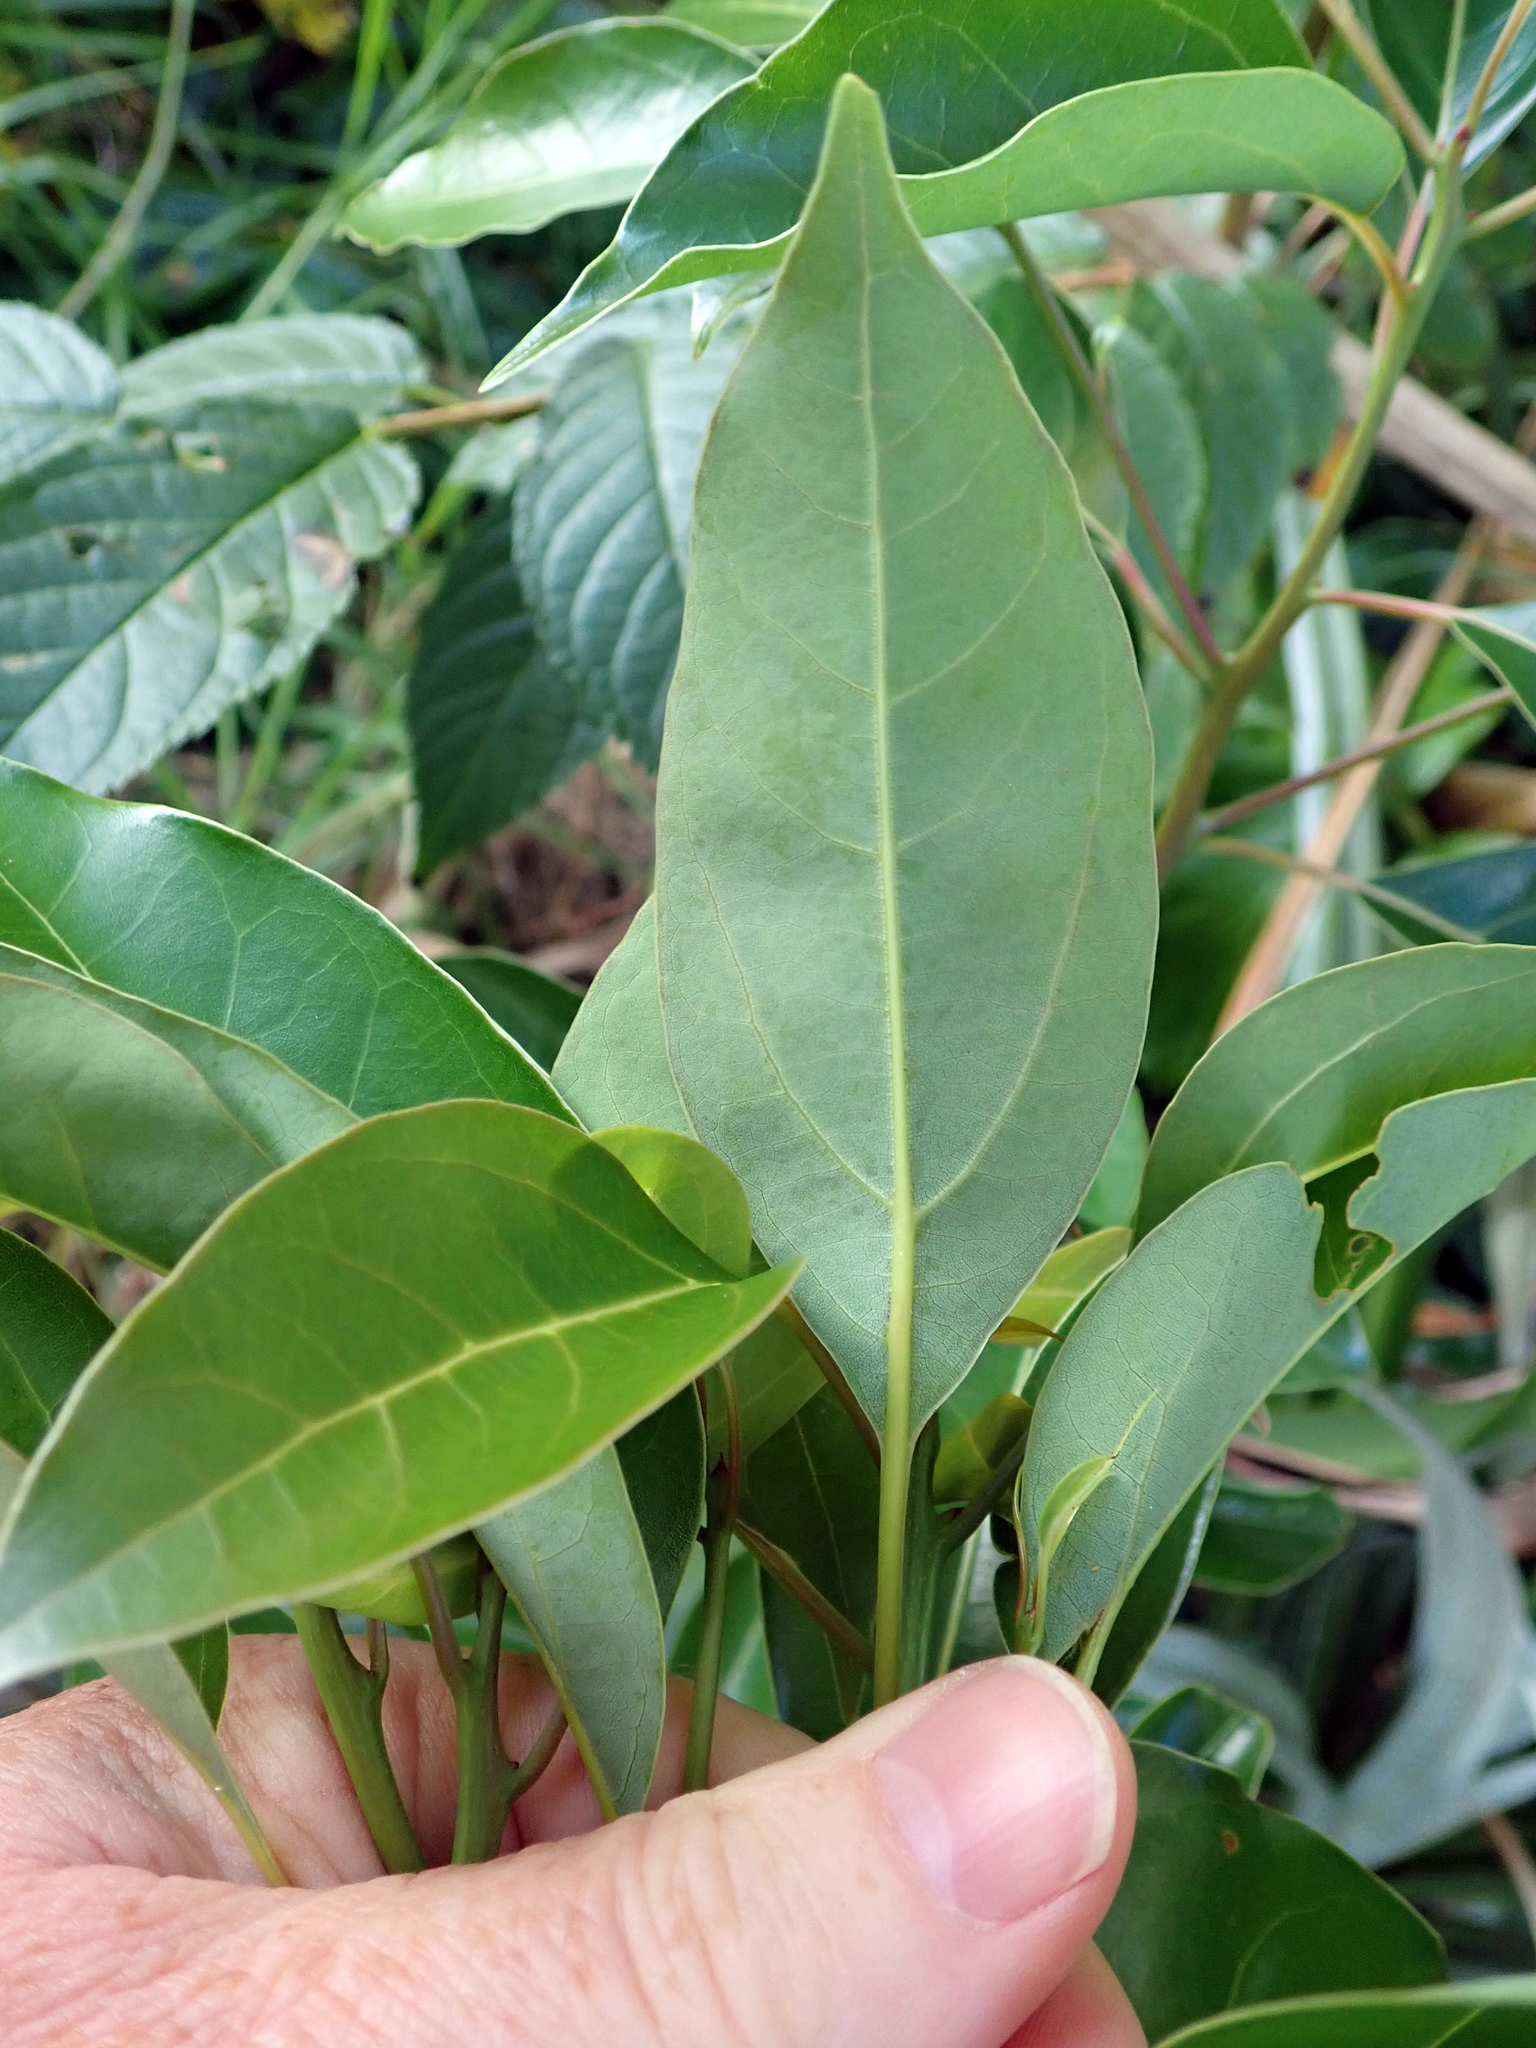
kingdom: Plantae
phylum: Tracheophyta
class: Magnoliopsida
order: Laurales
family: Lauraceae
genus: Cinnamomum
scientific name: Cinnamomum camphora
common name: Camphortree
